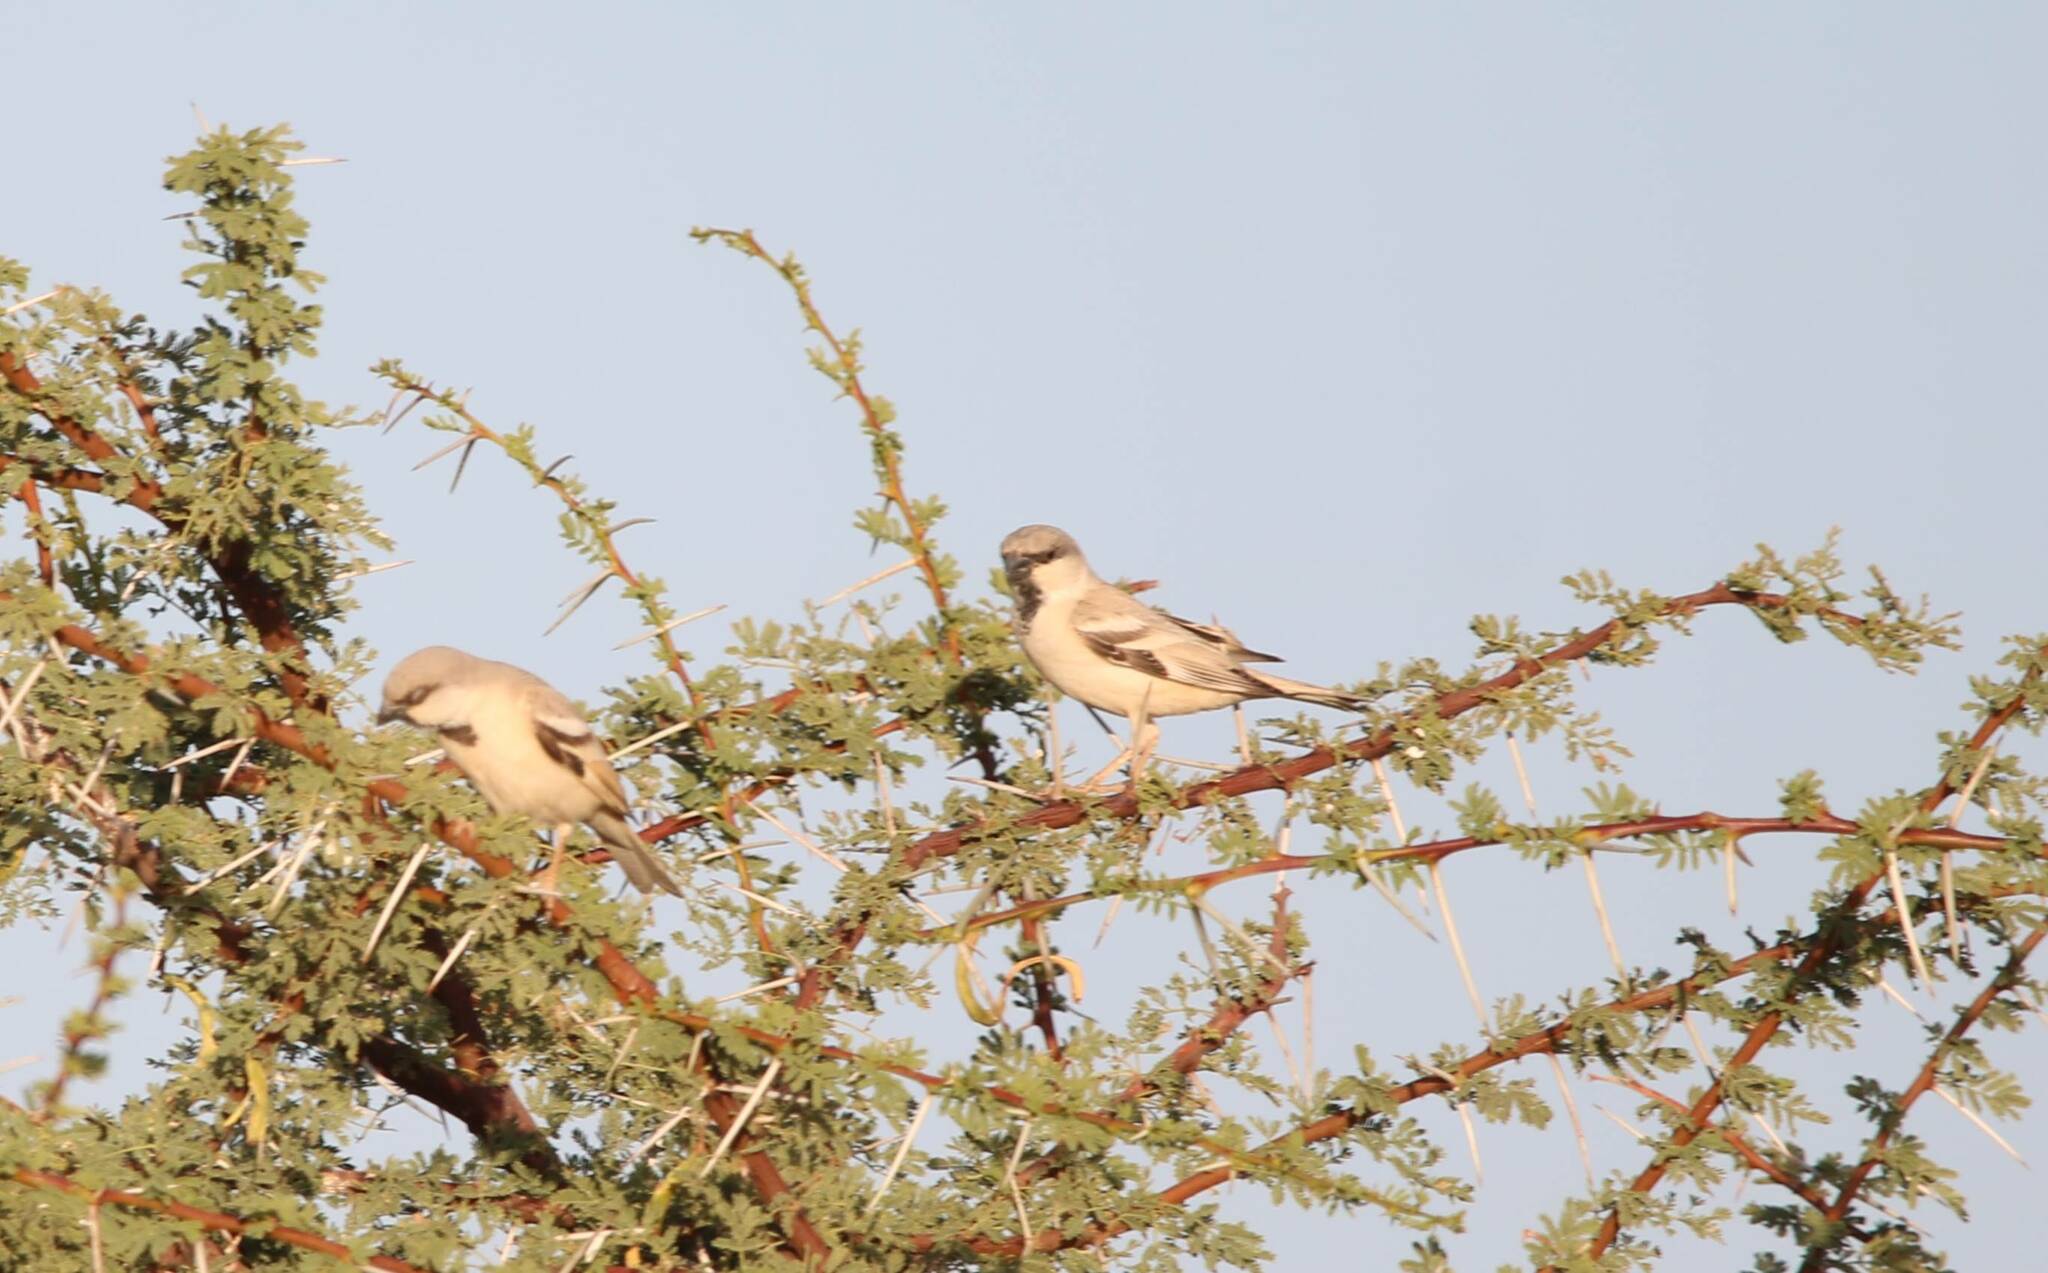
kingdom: Animalia
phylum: Chordata
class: Aves
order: Passeriformes
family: Passeridae
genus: Passer
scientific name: Passer simplex
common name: Desert sparrow
